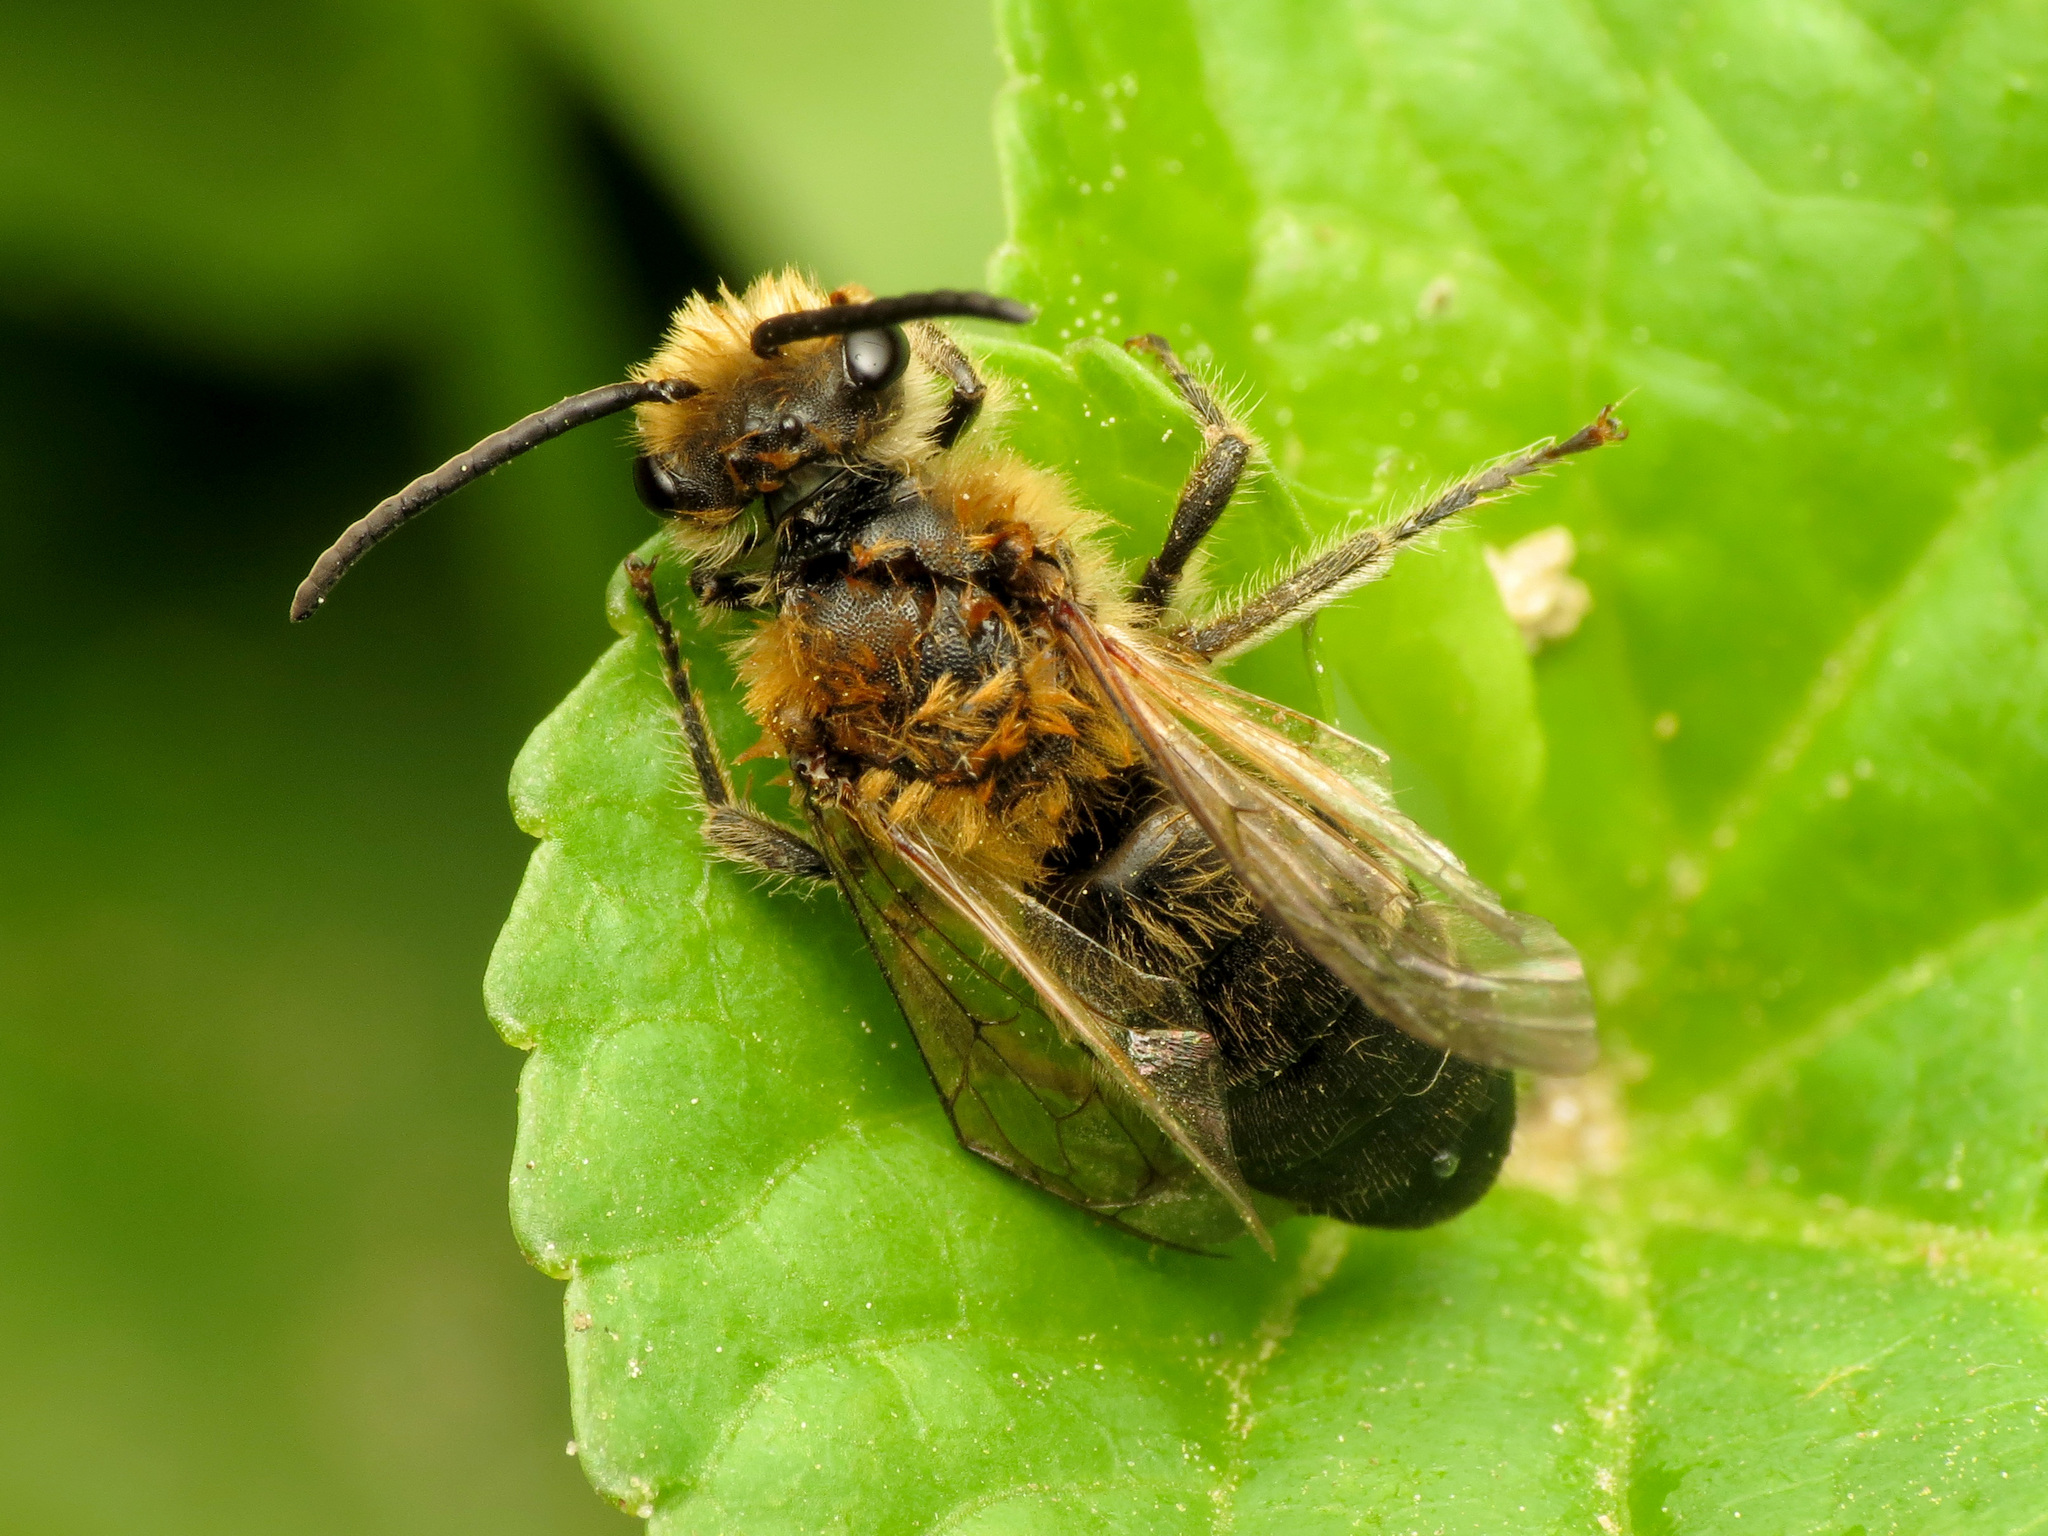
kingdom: Animalia
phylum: Arthropoda
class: Insecta
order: Hymenoptera
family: Colletidae
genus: Colletes
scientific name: Colletes thoracicus
